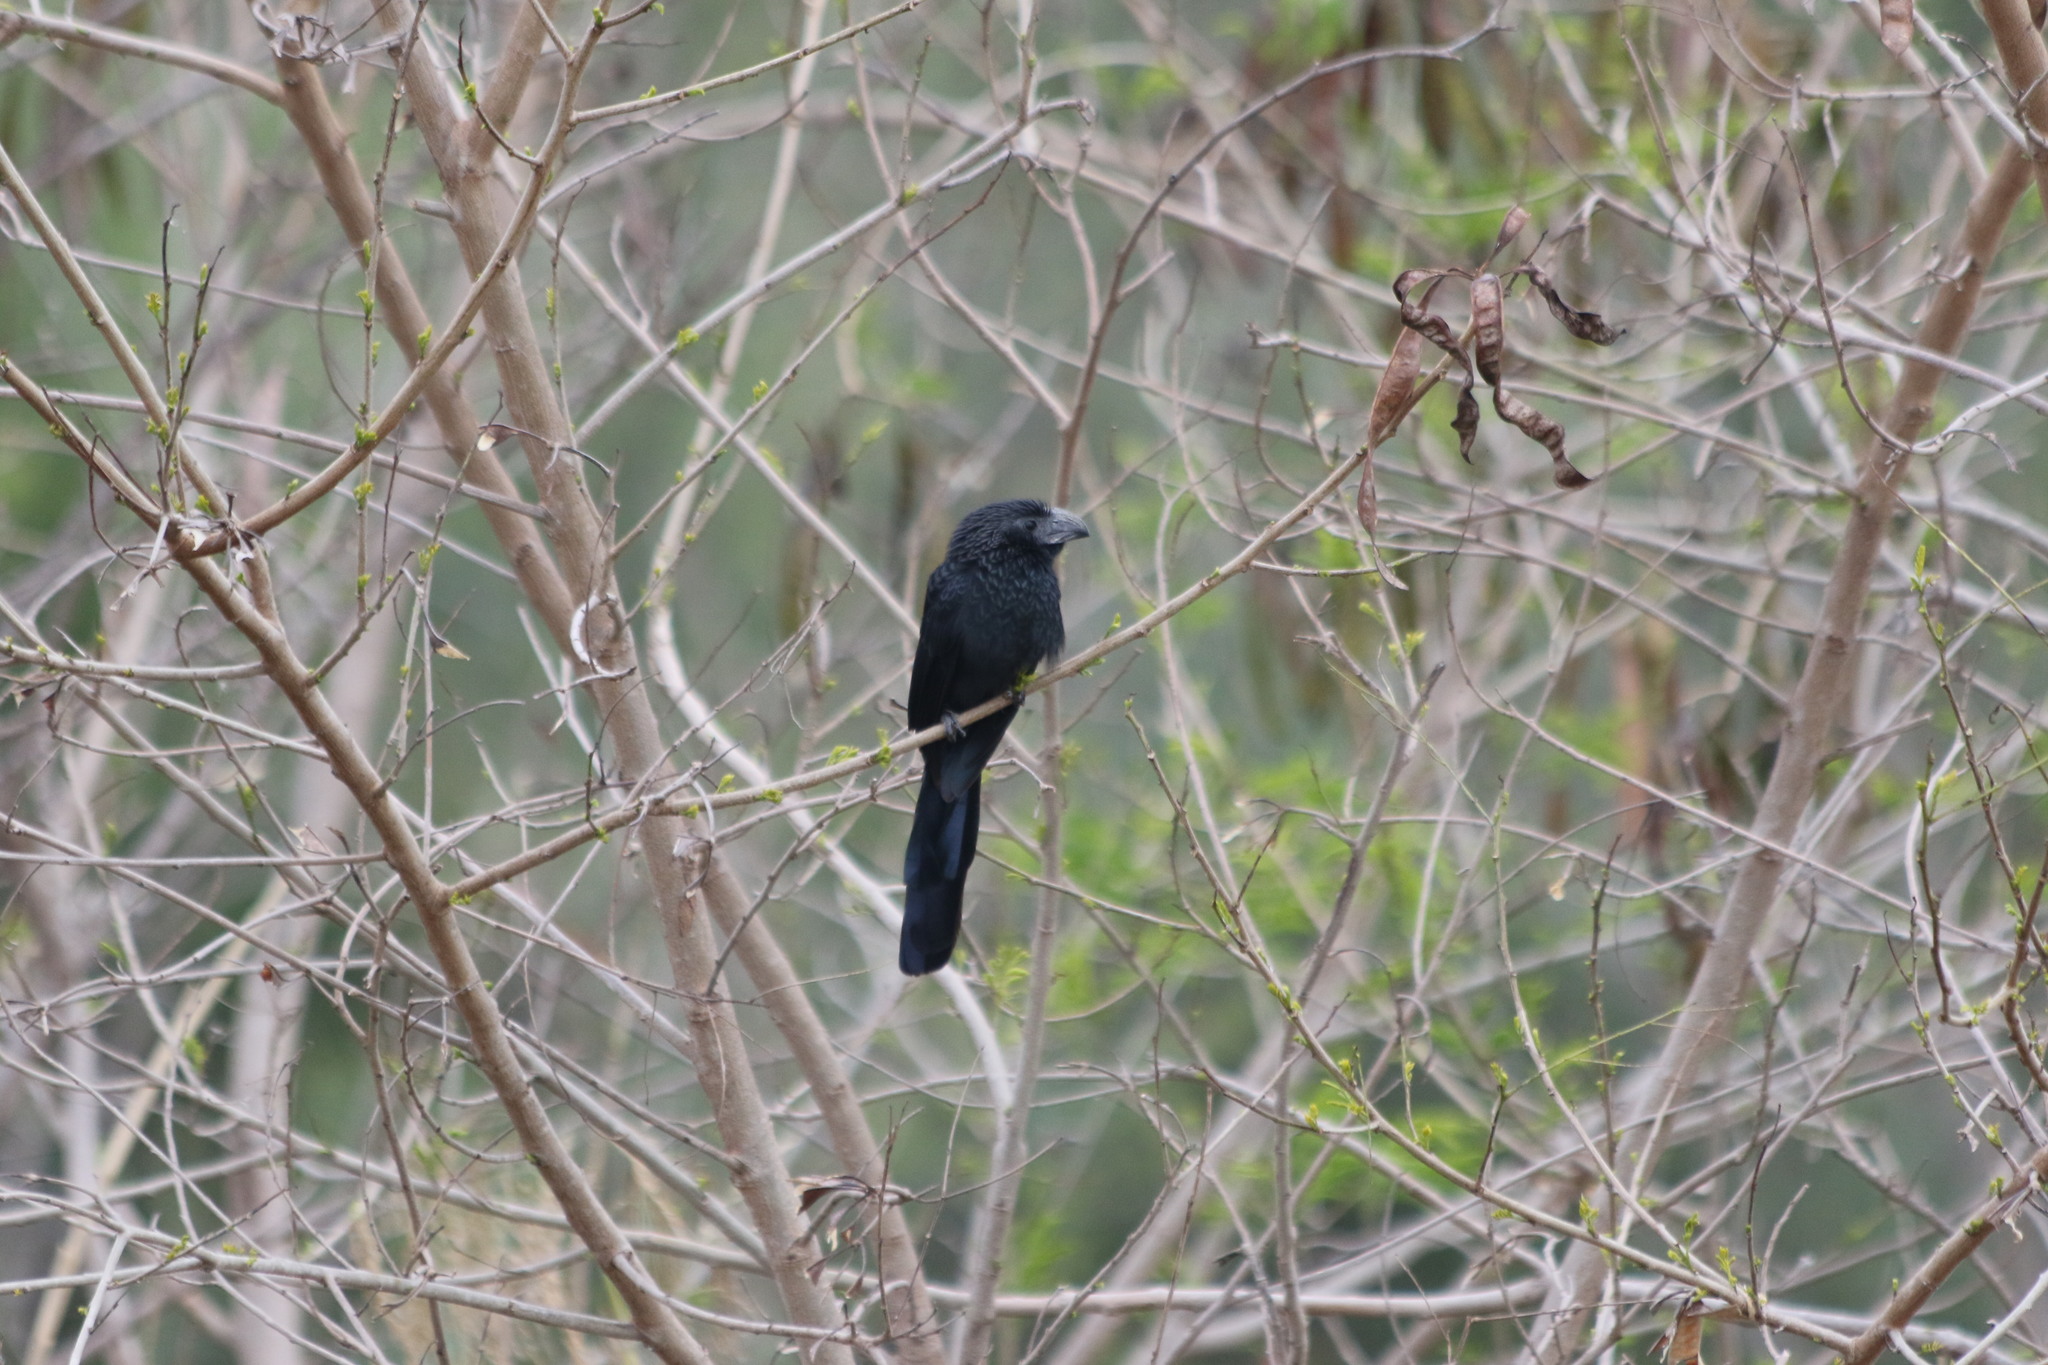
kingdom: Animalia
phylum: Chordata
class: Aves
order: Cuculiformes
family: Cuculidae
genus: Crotophaga
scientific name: Crotophaga sulcirostris
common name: Groove-billed ani
